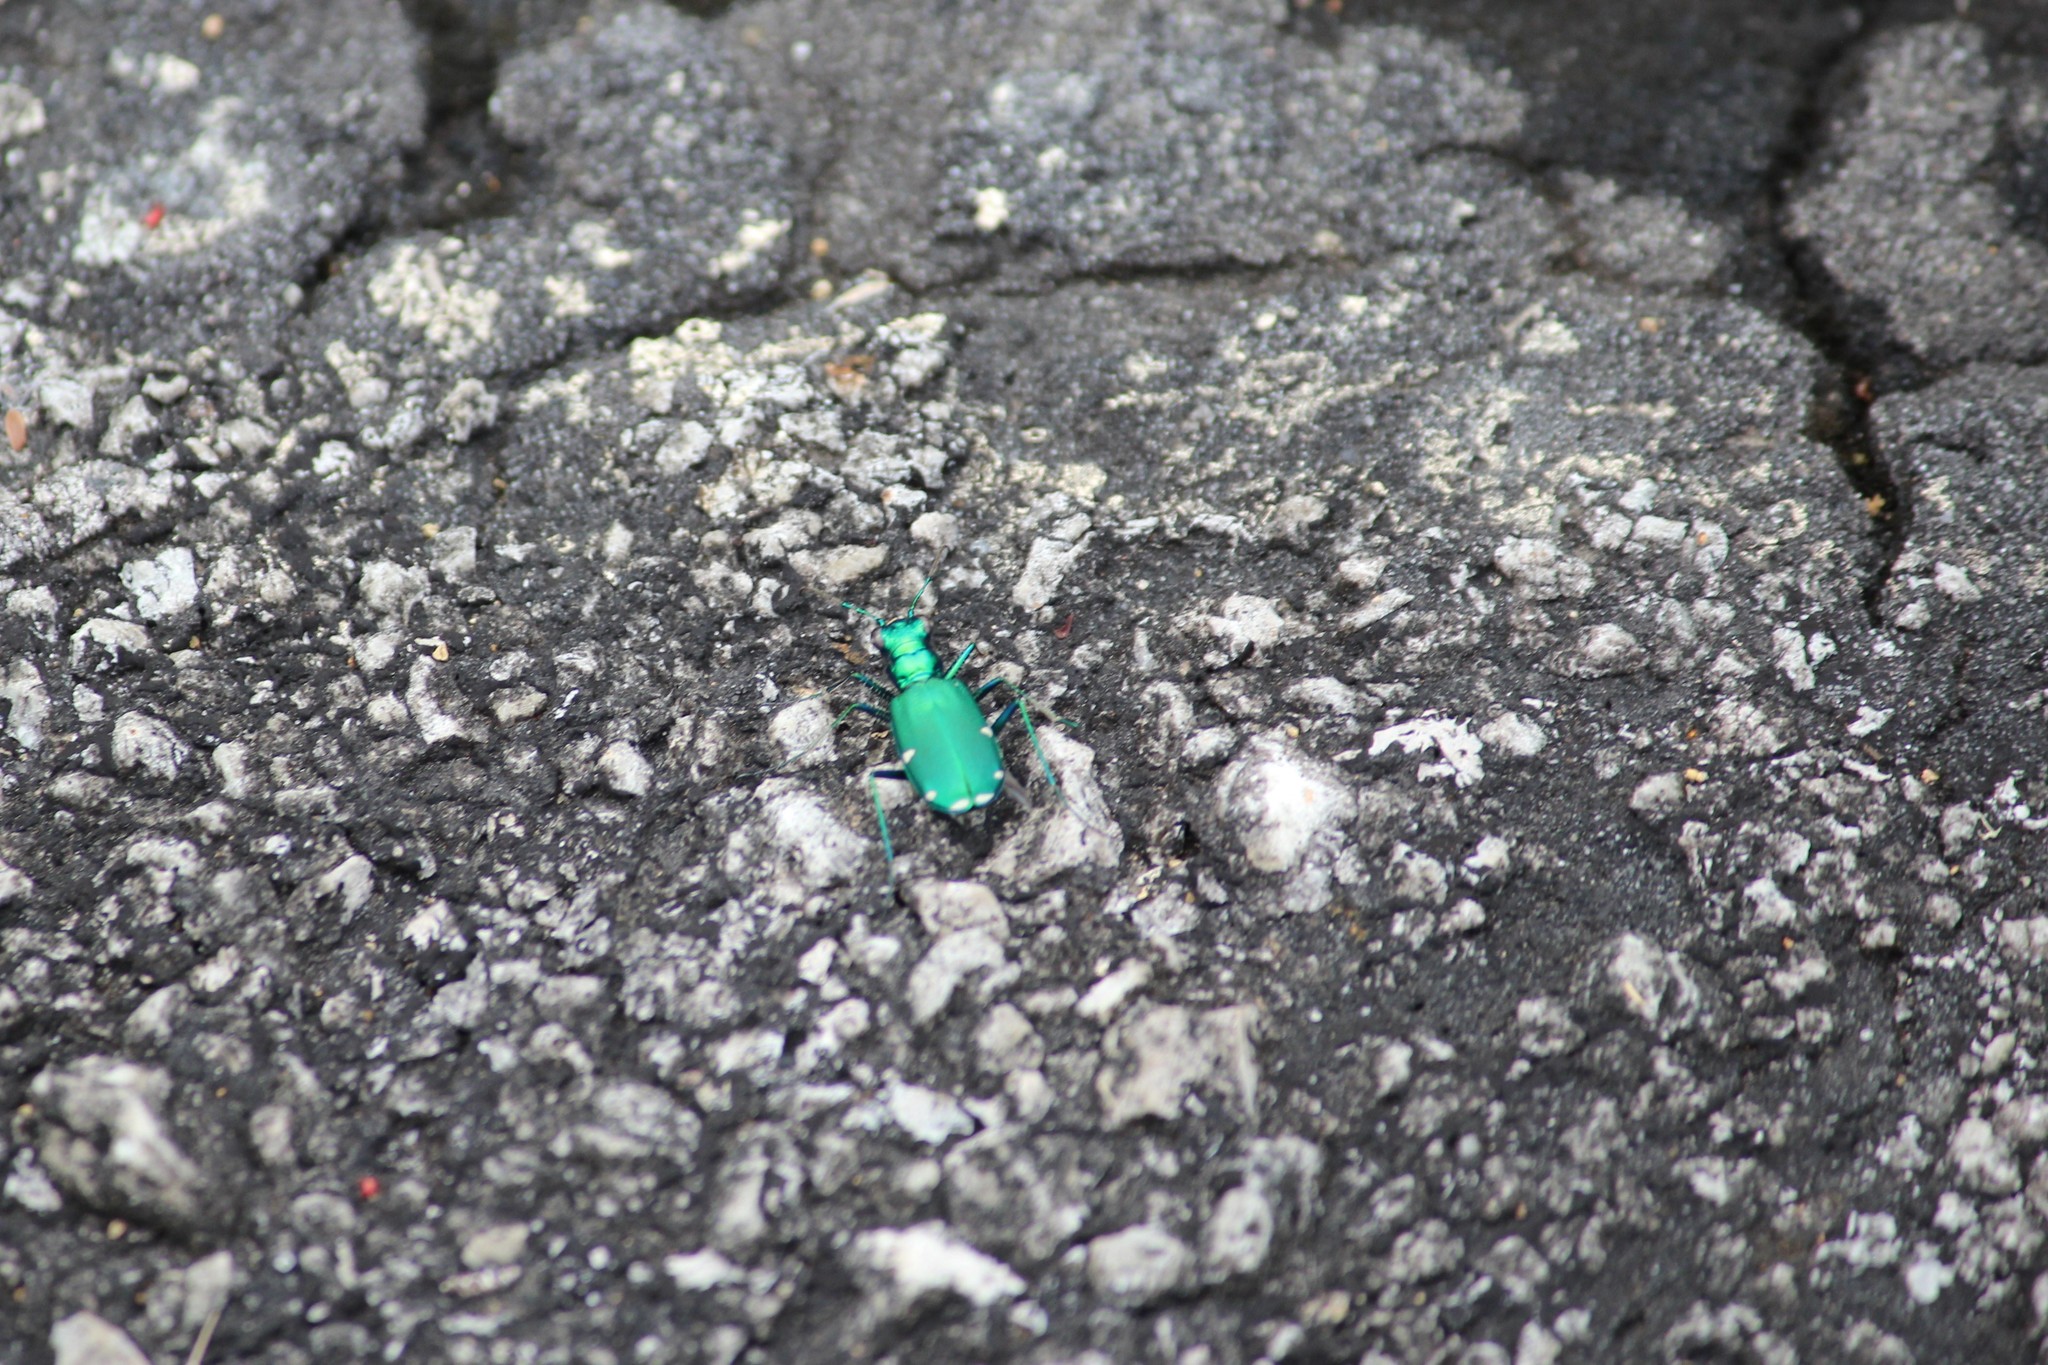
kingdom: Animalia
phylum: Arthropoda
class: Insecta
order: Coleoptera
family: Carabidae
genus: Cicindela
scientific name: Cicindela sexguttata
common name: Six-spotted tiger beetle
